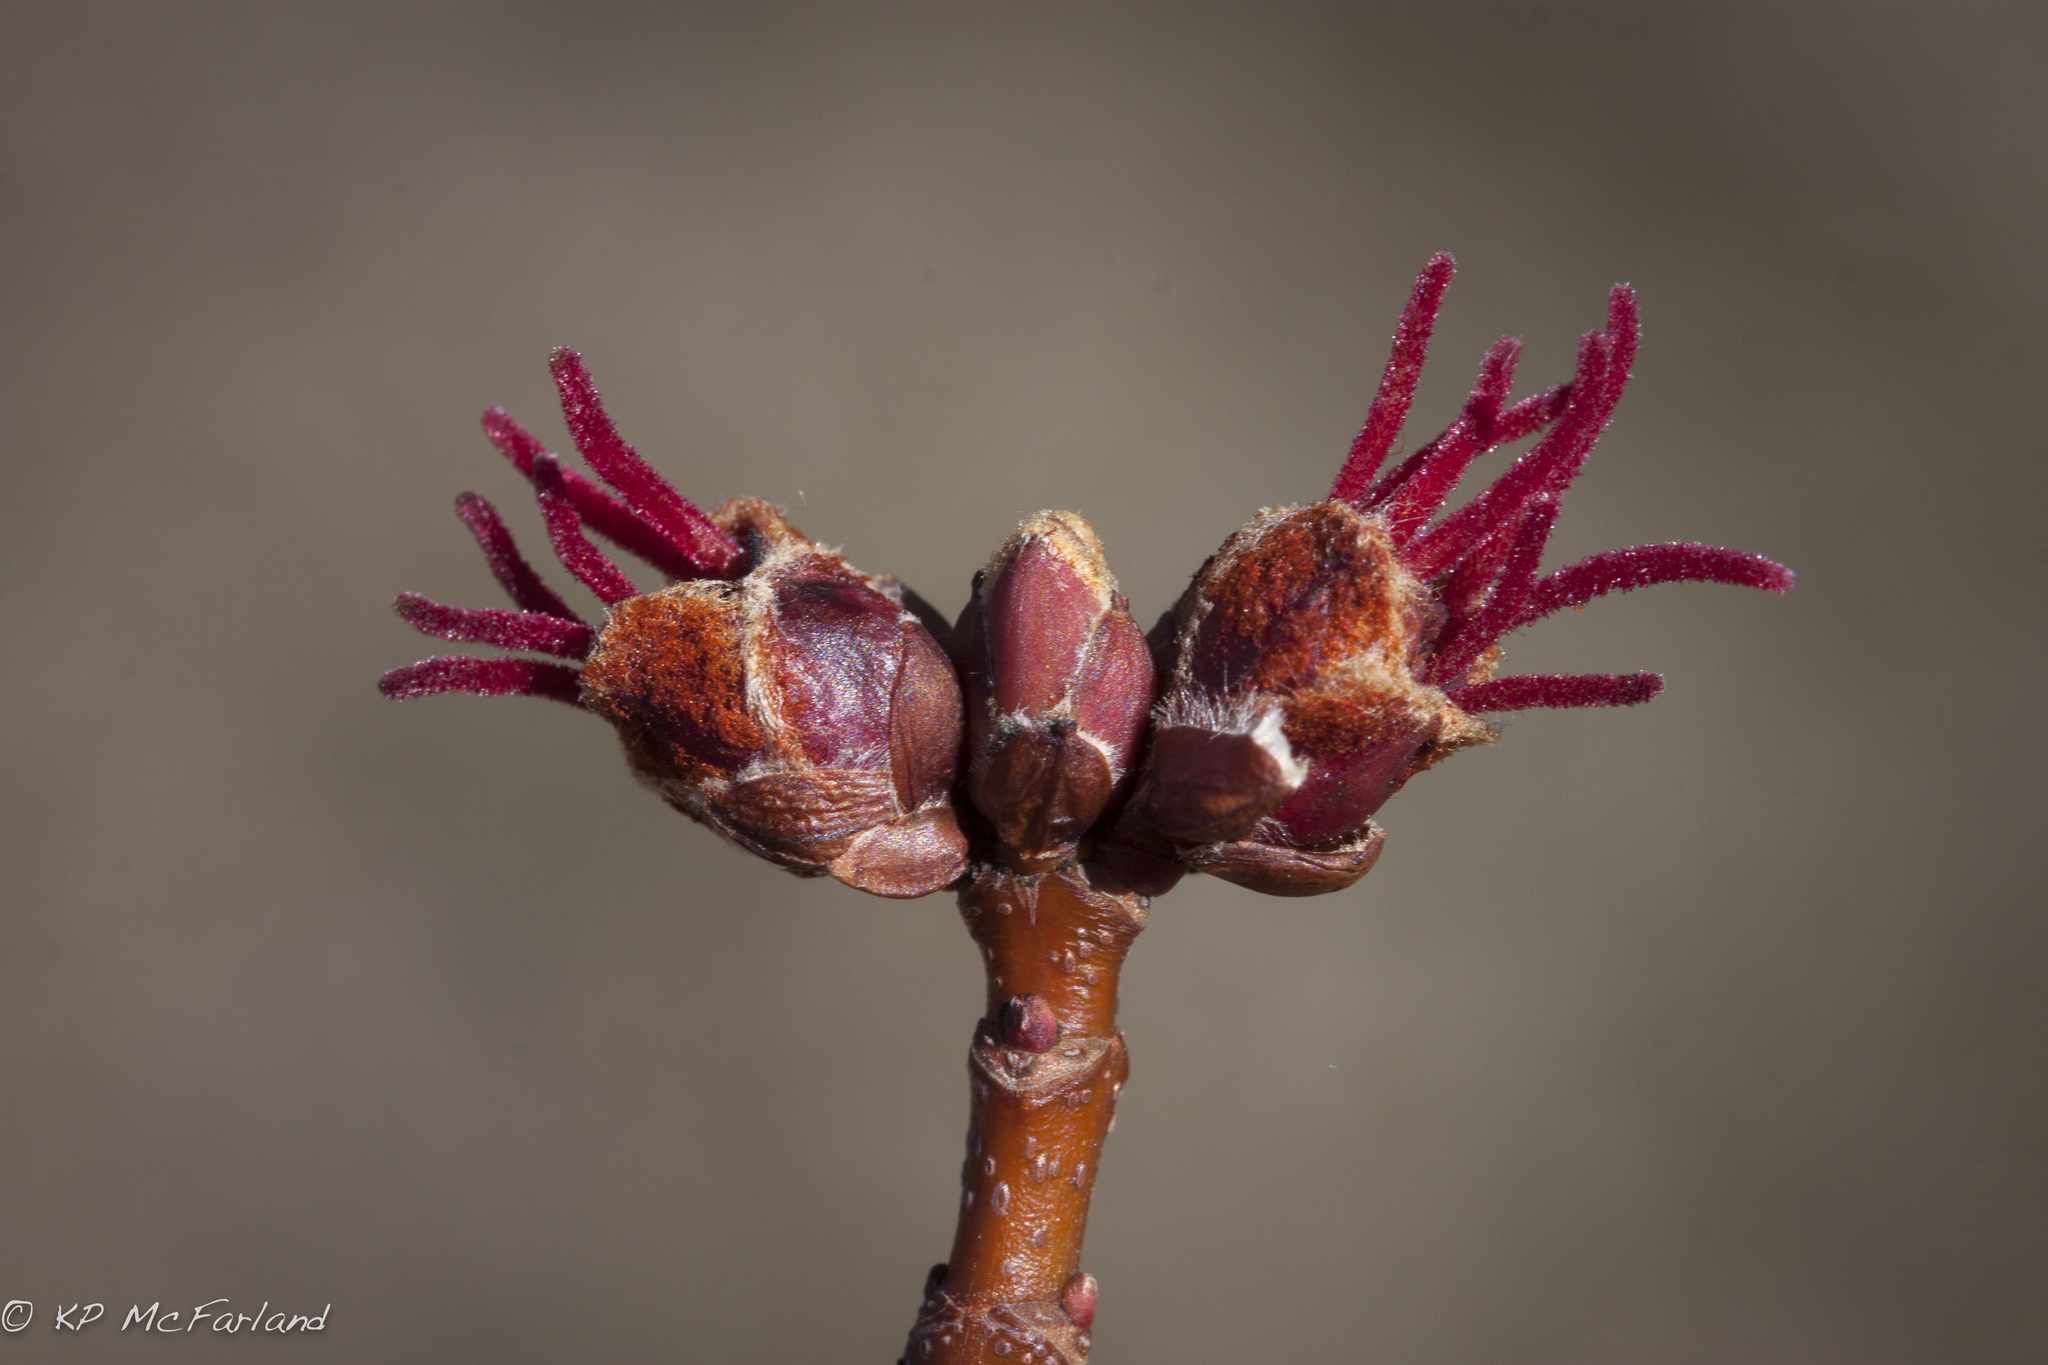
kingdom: Plantae
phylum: Tracheophyta
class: Magnoliopsida
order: Sapindales
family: Sapindaceae
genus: Acer
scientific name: Acer saccharinum
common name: Silver maple
